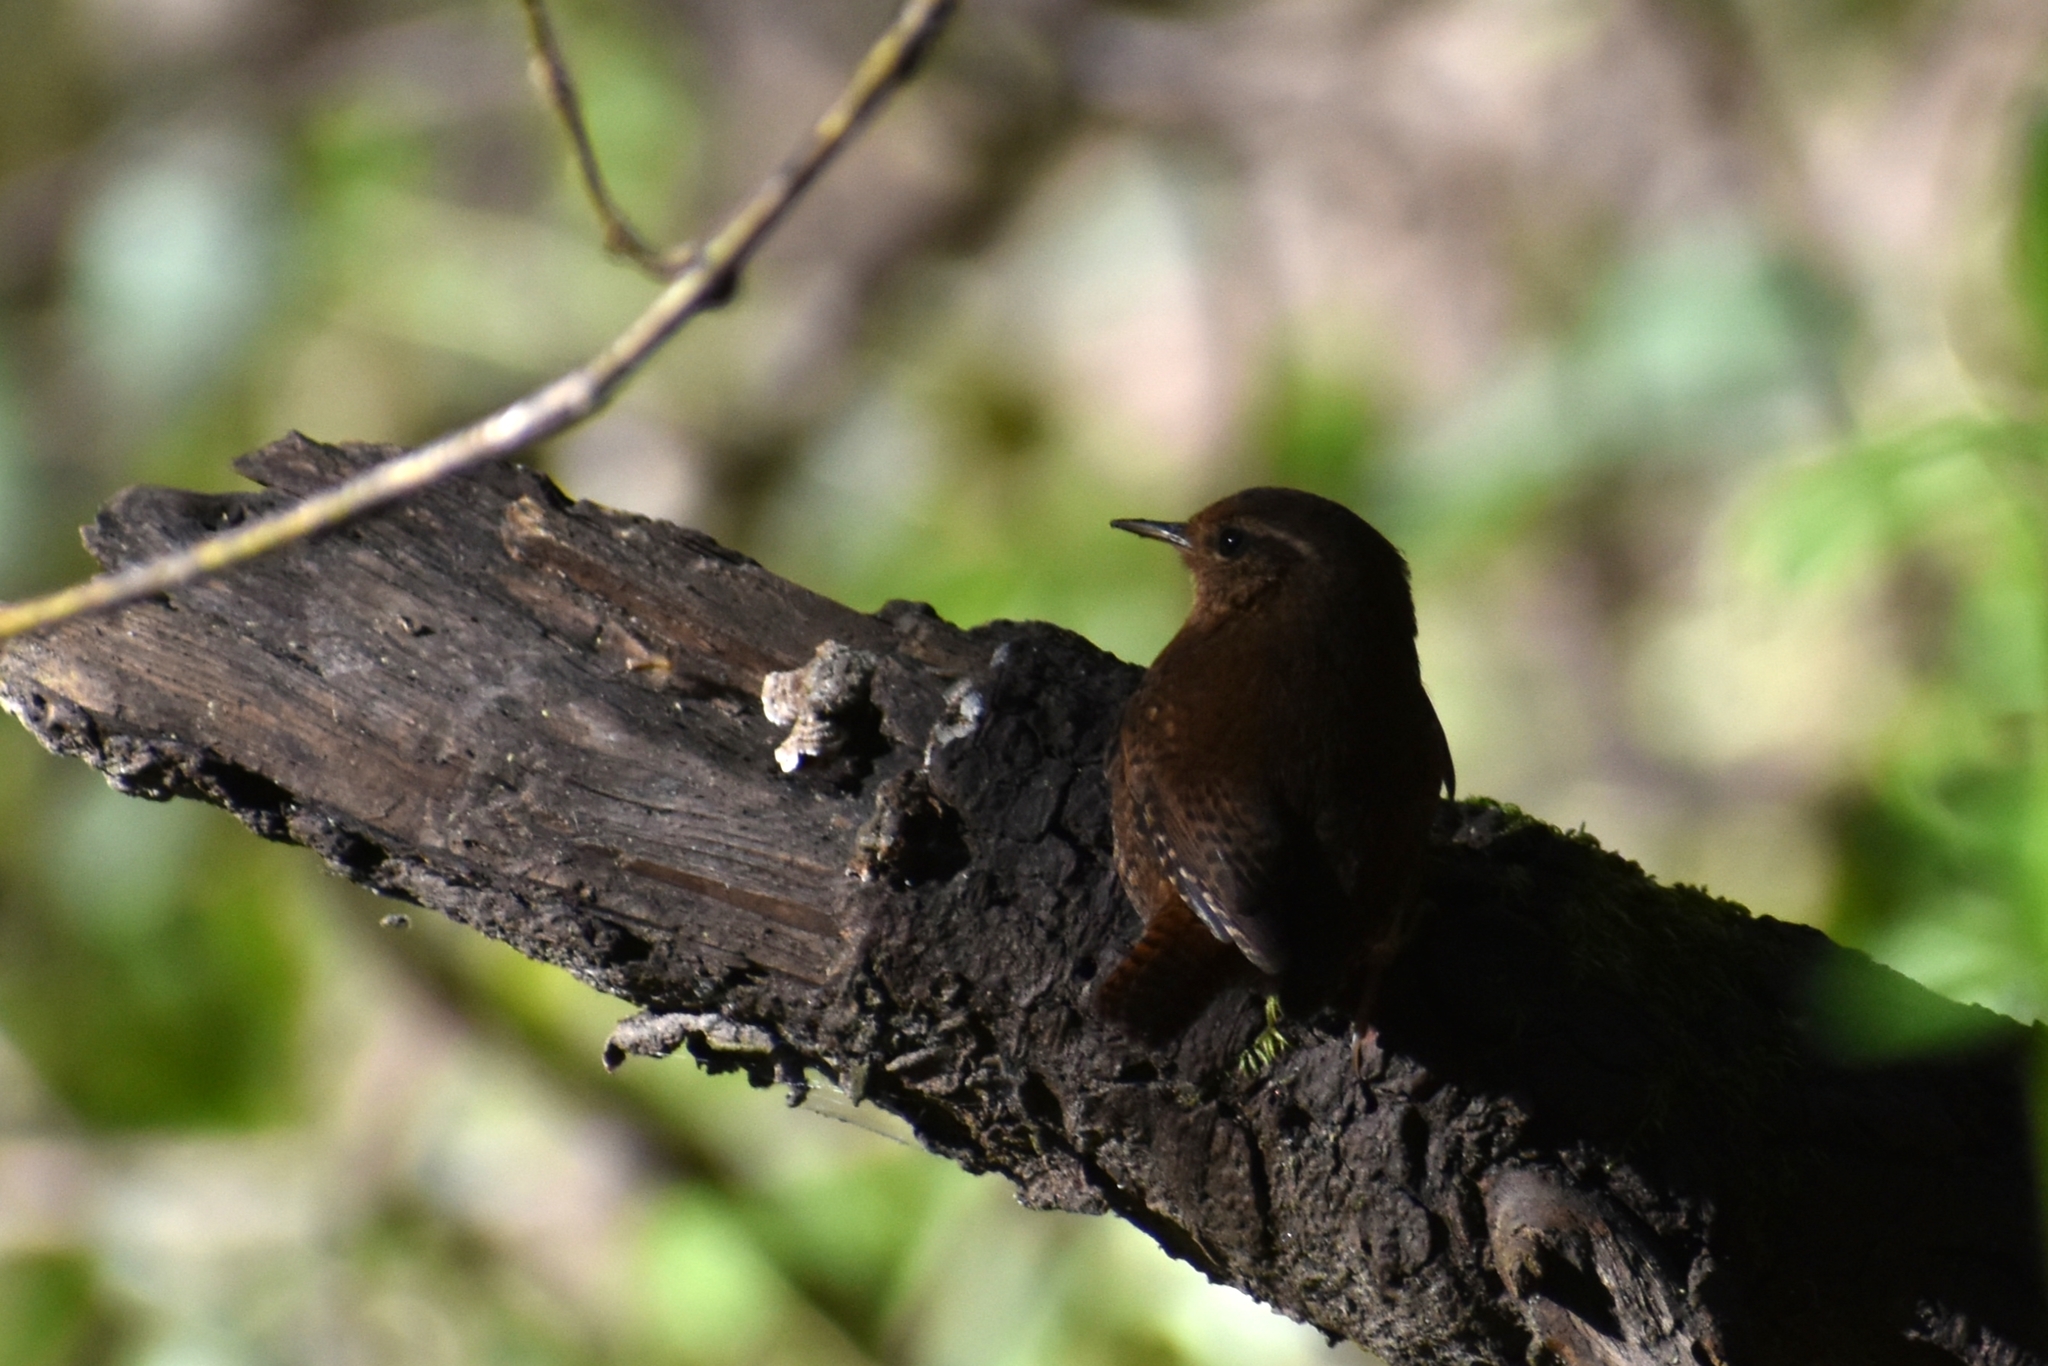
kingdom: Animalia
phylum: Chordata
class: Aves
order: Passeriformes
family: Troglodytidae
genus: Troglodytes
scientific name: Troglodytes pacificus
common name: Pacific wren
